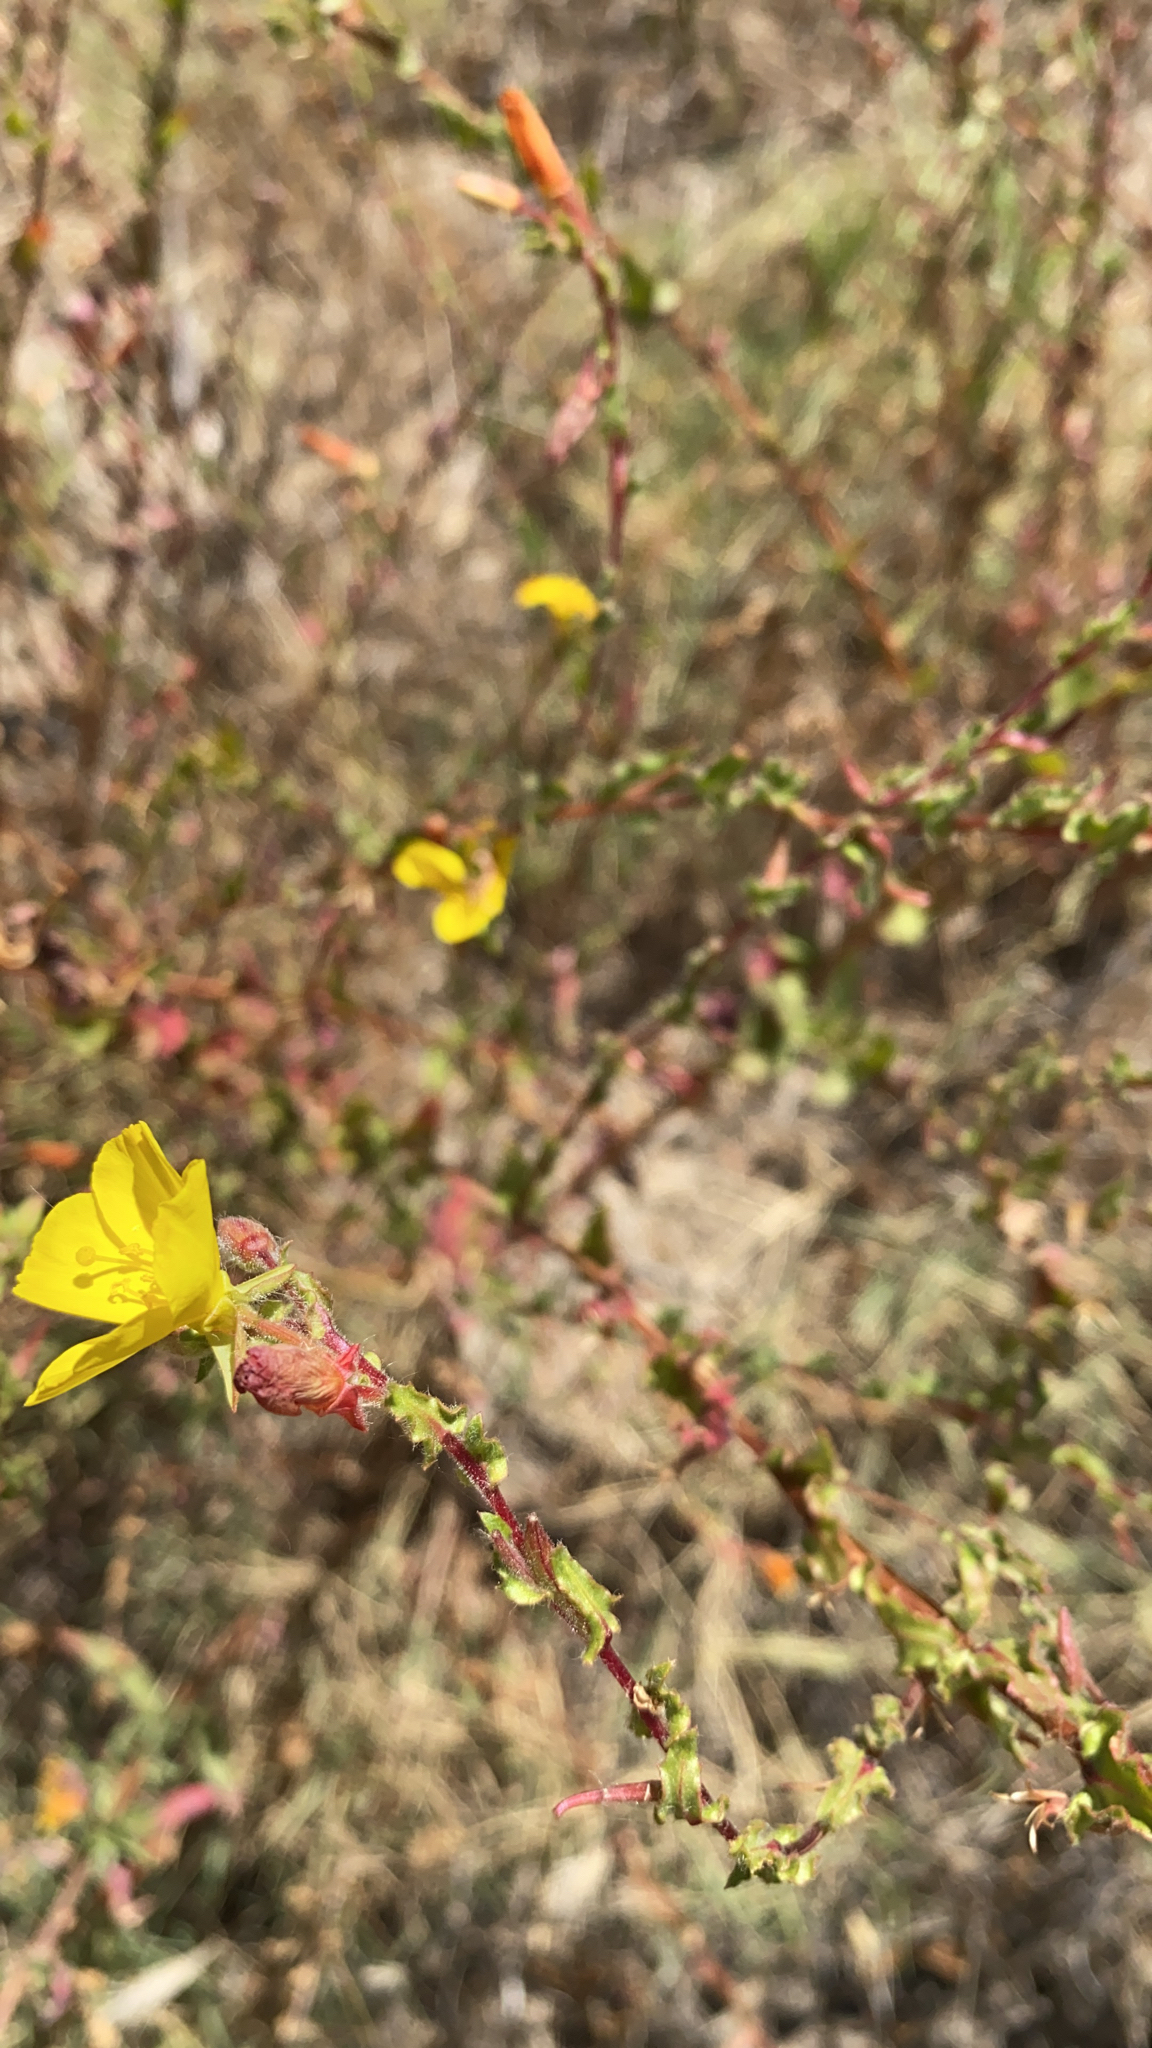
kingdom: Plantae
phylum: Tracheophyta
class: Magnoliopsida
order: Myrtales
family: Onagraceae
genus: Camissoniopsis
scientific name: Camissoniopsis bistorta
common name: Southern suncup
